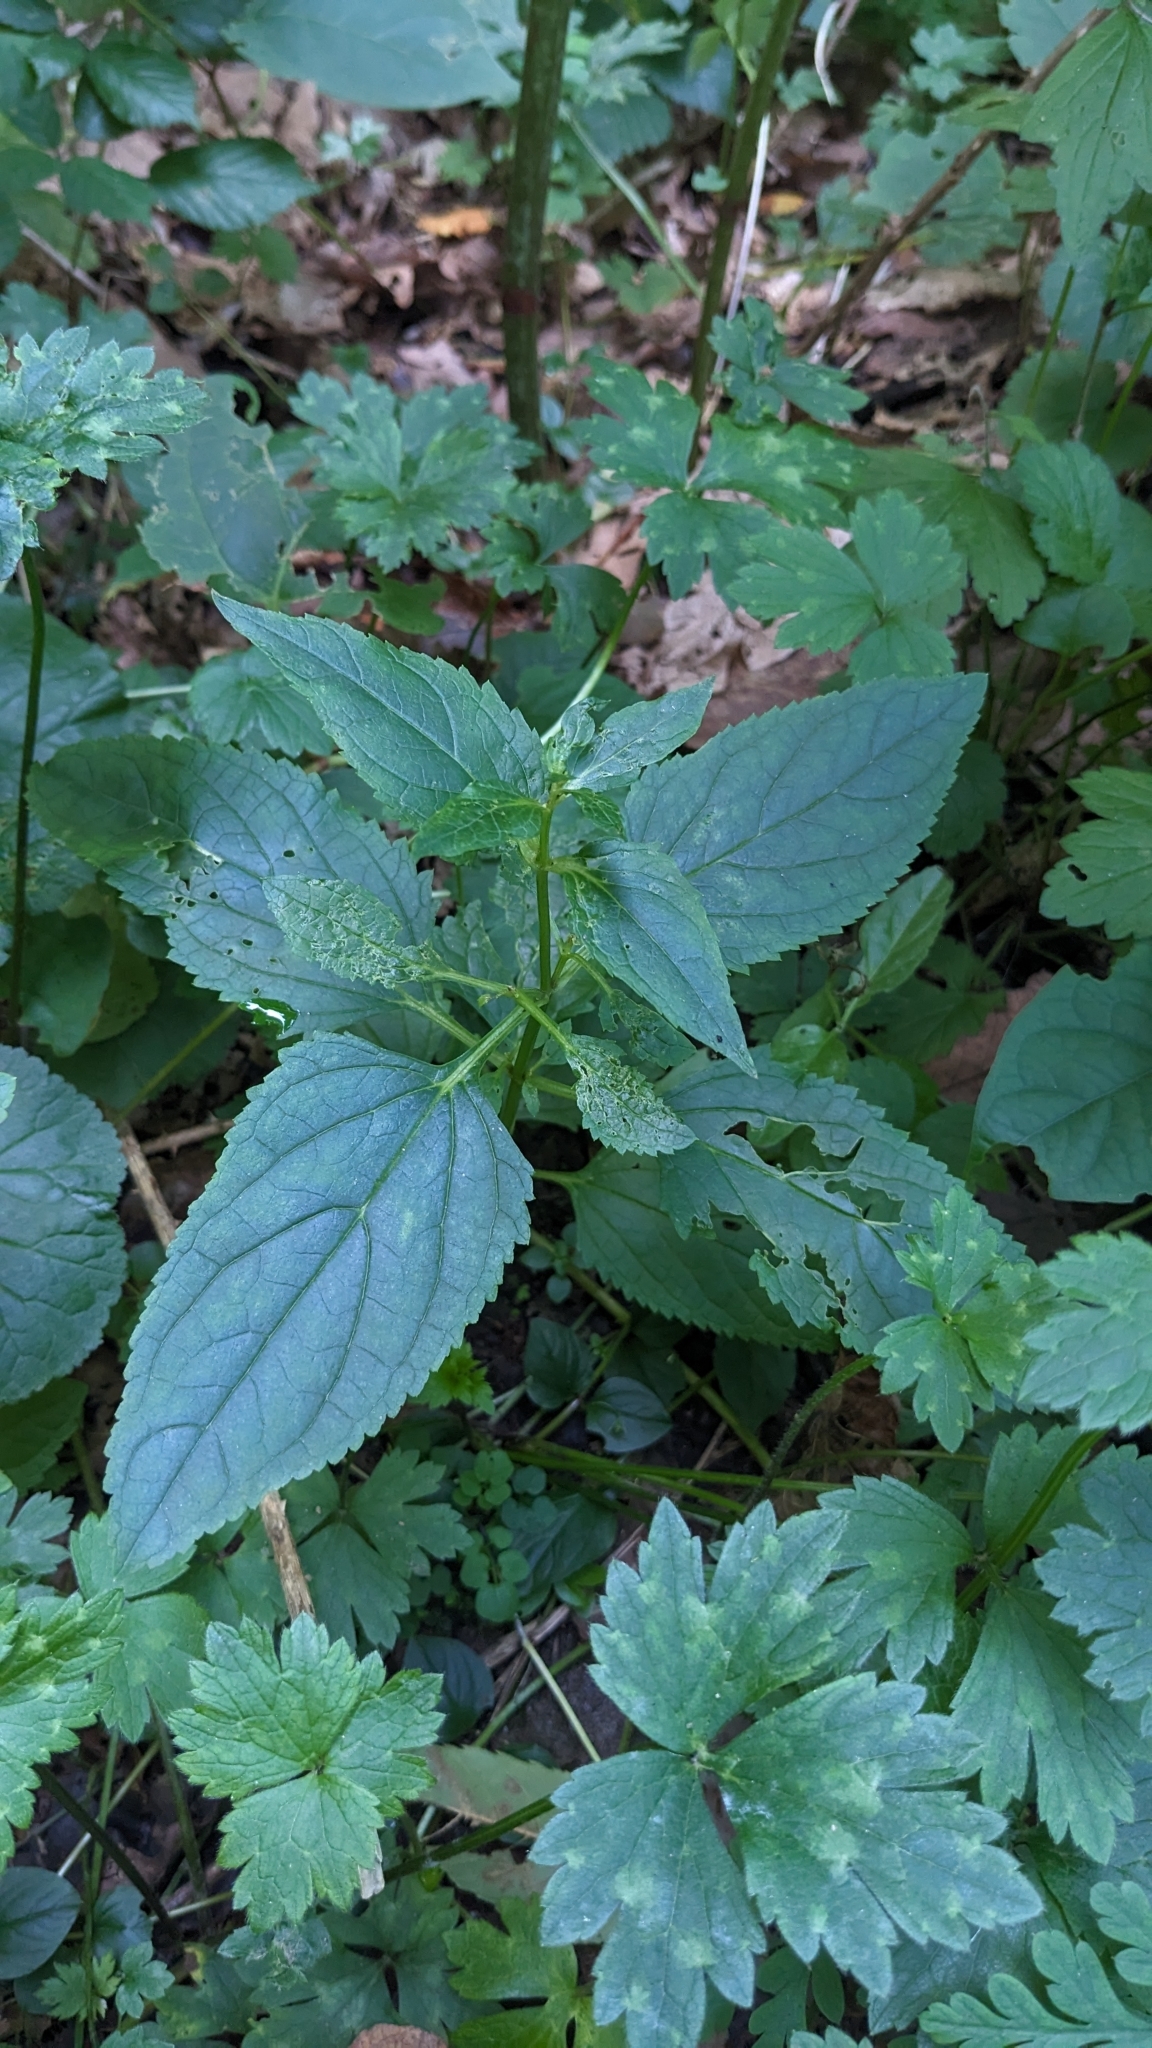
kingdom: Plantae
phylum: Tracheophyta
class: Magnoliopsida
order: Lamiales
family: Scrophulariaceae
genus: Scrophularia
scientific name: Scrophularia nodosa
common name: Common figwort
